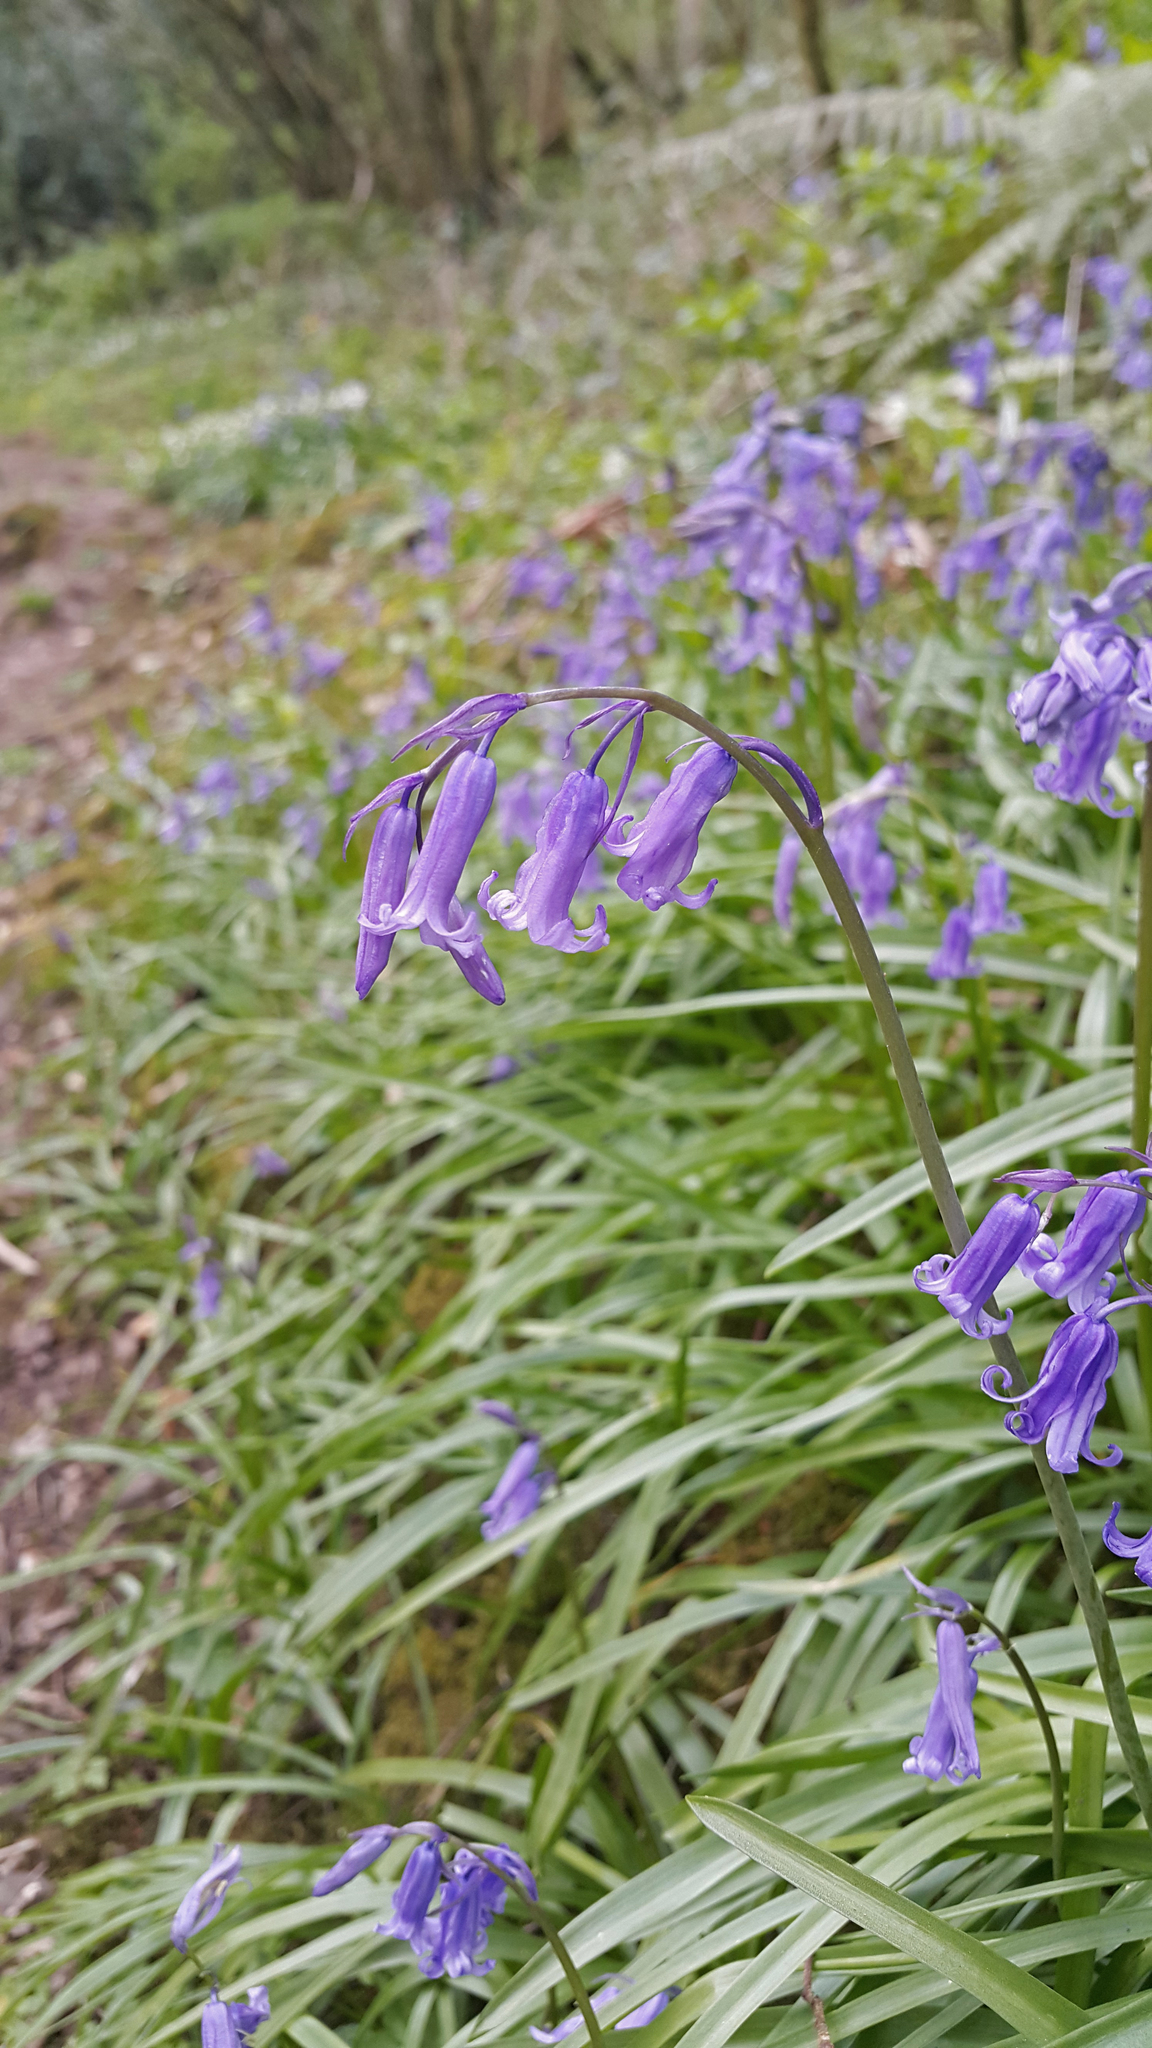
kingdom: Plantae
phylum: Tracheophyta
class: Liliopsida
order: Asparagales
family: Asparagaceae
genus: Hyacinthoides
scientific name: Hyacinthoides non-scripta
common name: Bluebell
